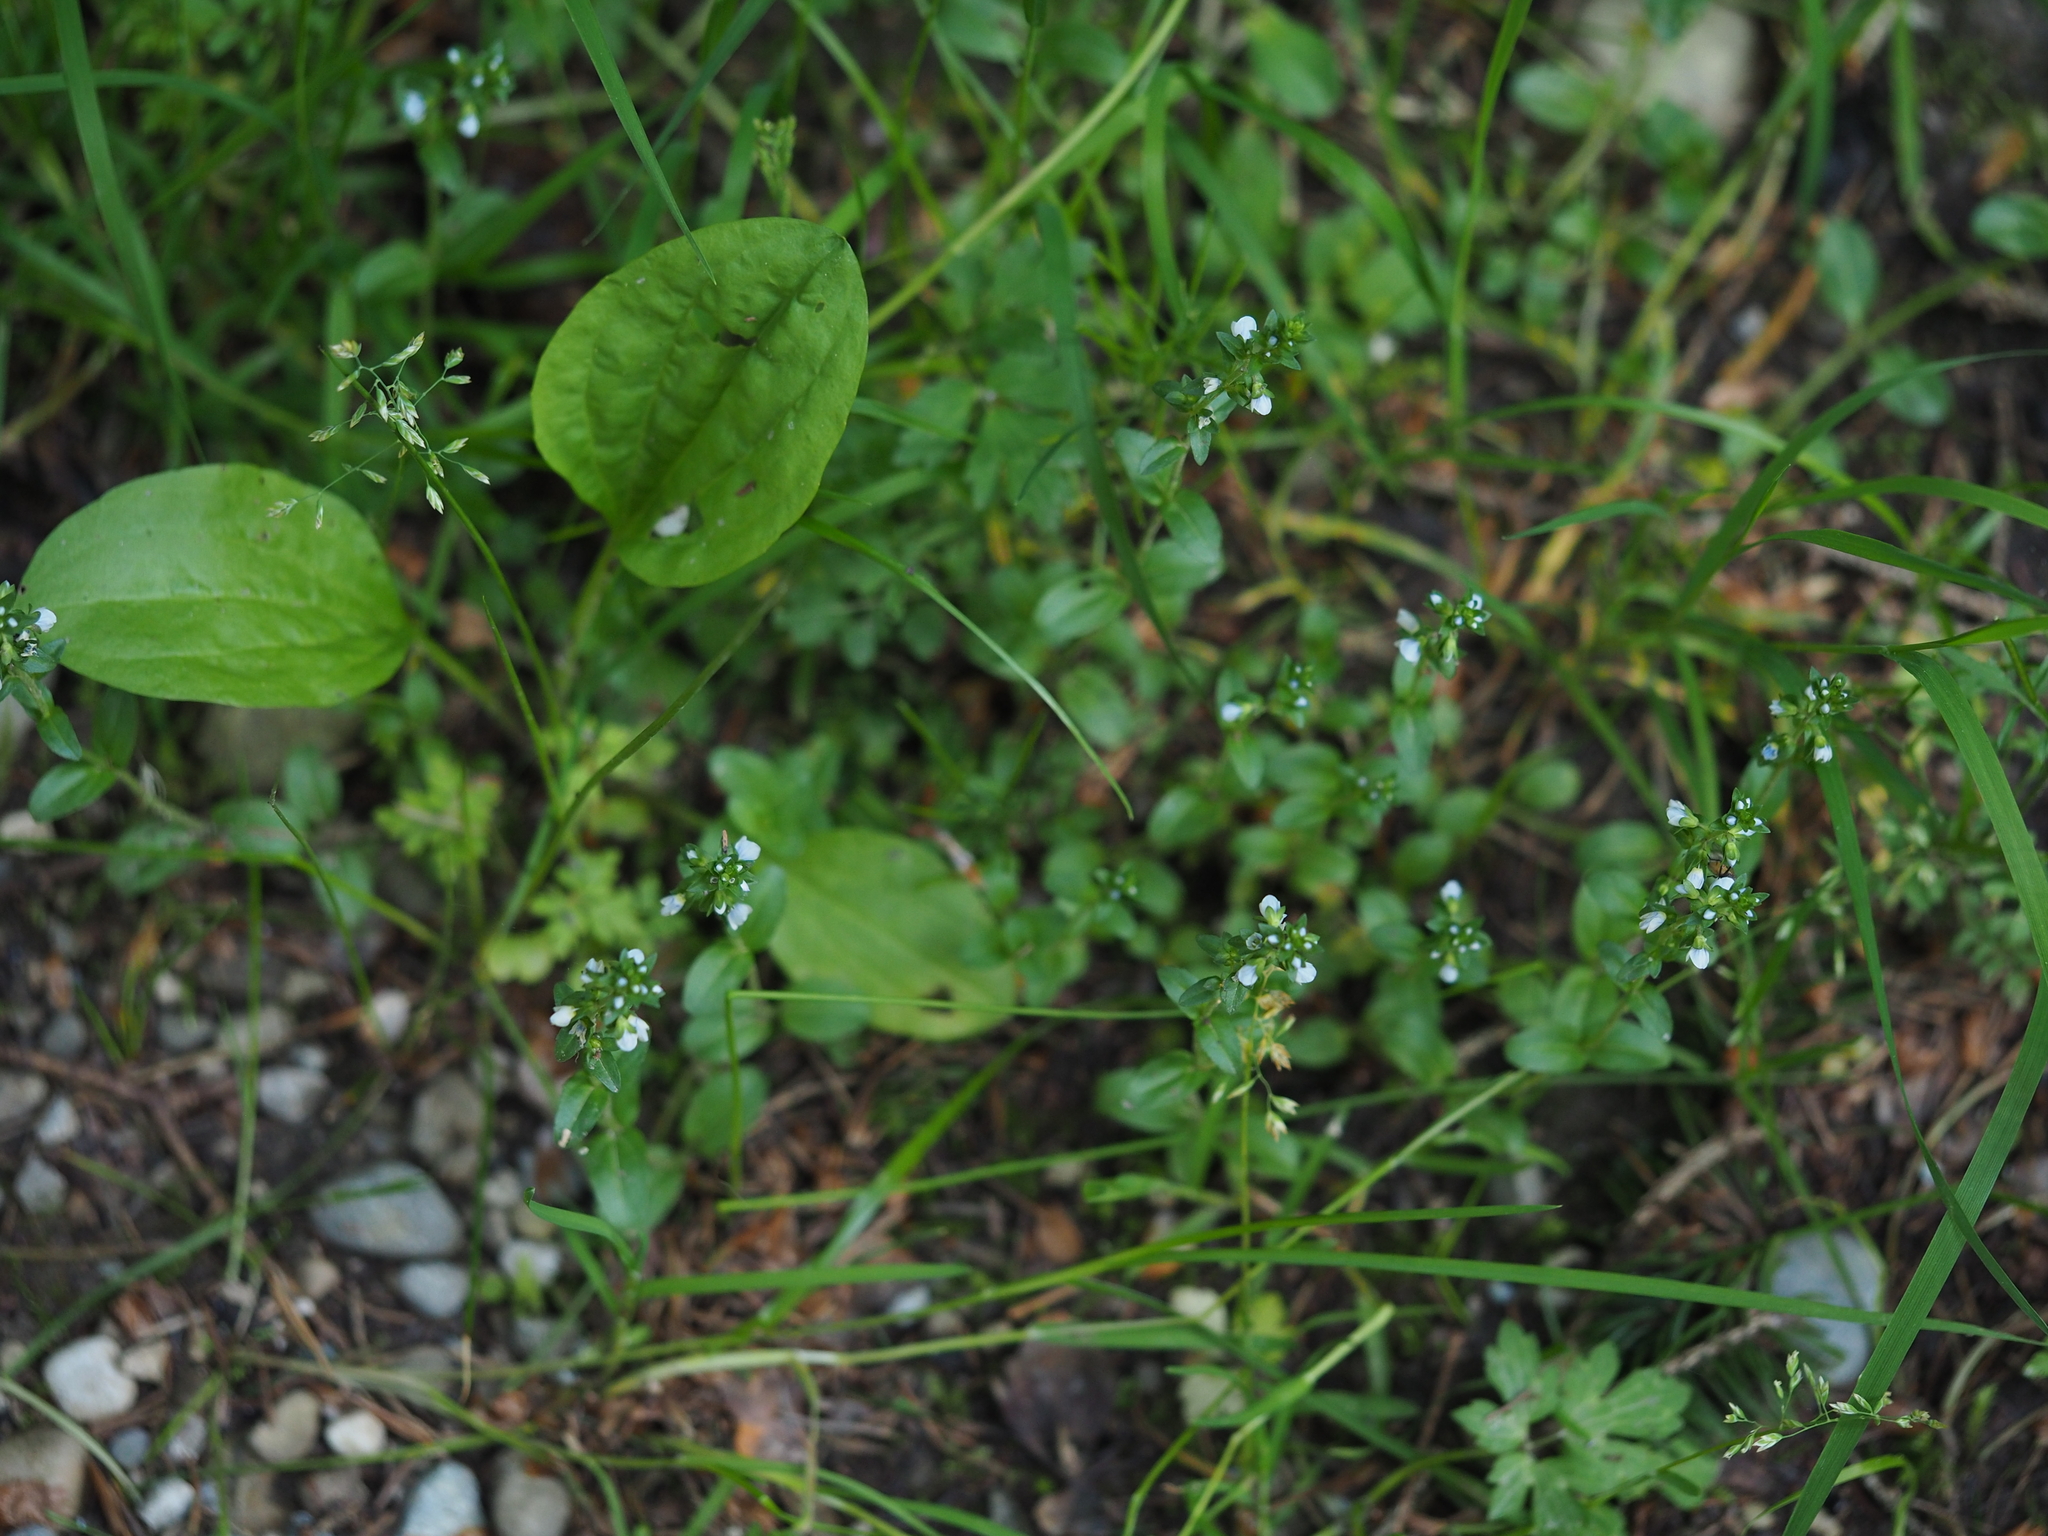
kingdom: Plantae
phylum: Tracheophyta
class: Magnoliopsida
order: Lamiales
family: Plantaginaceae
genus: Veronica
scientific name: Veronica serpyllifolia
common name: Thyme-leaved speedwell
